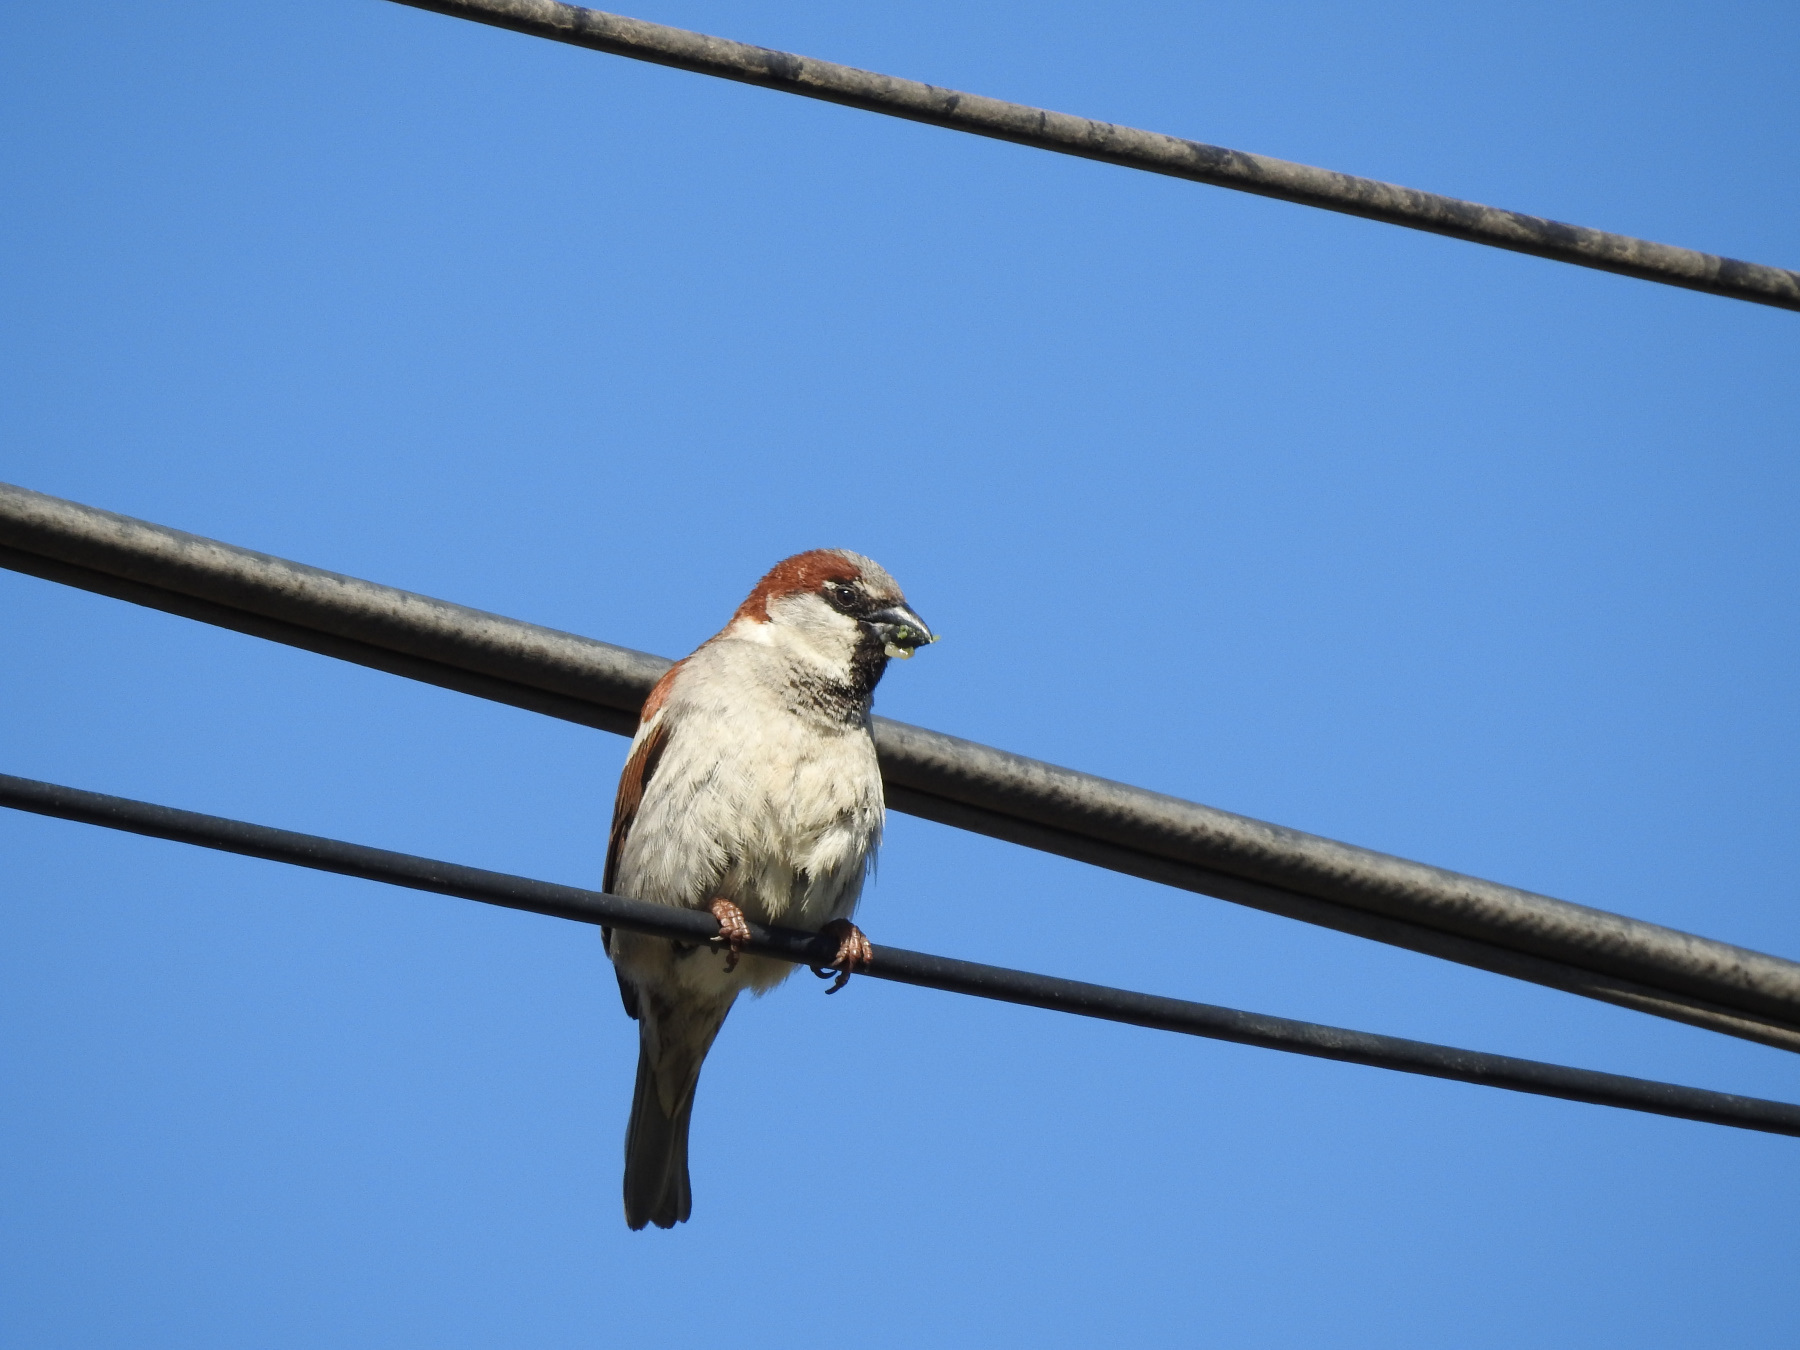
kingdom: Animalia
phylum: Chordata
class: Aves
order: Passeriformes
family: Passeridae
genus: Passer
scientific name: Passer domesticus
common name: House sparrow
